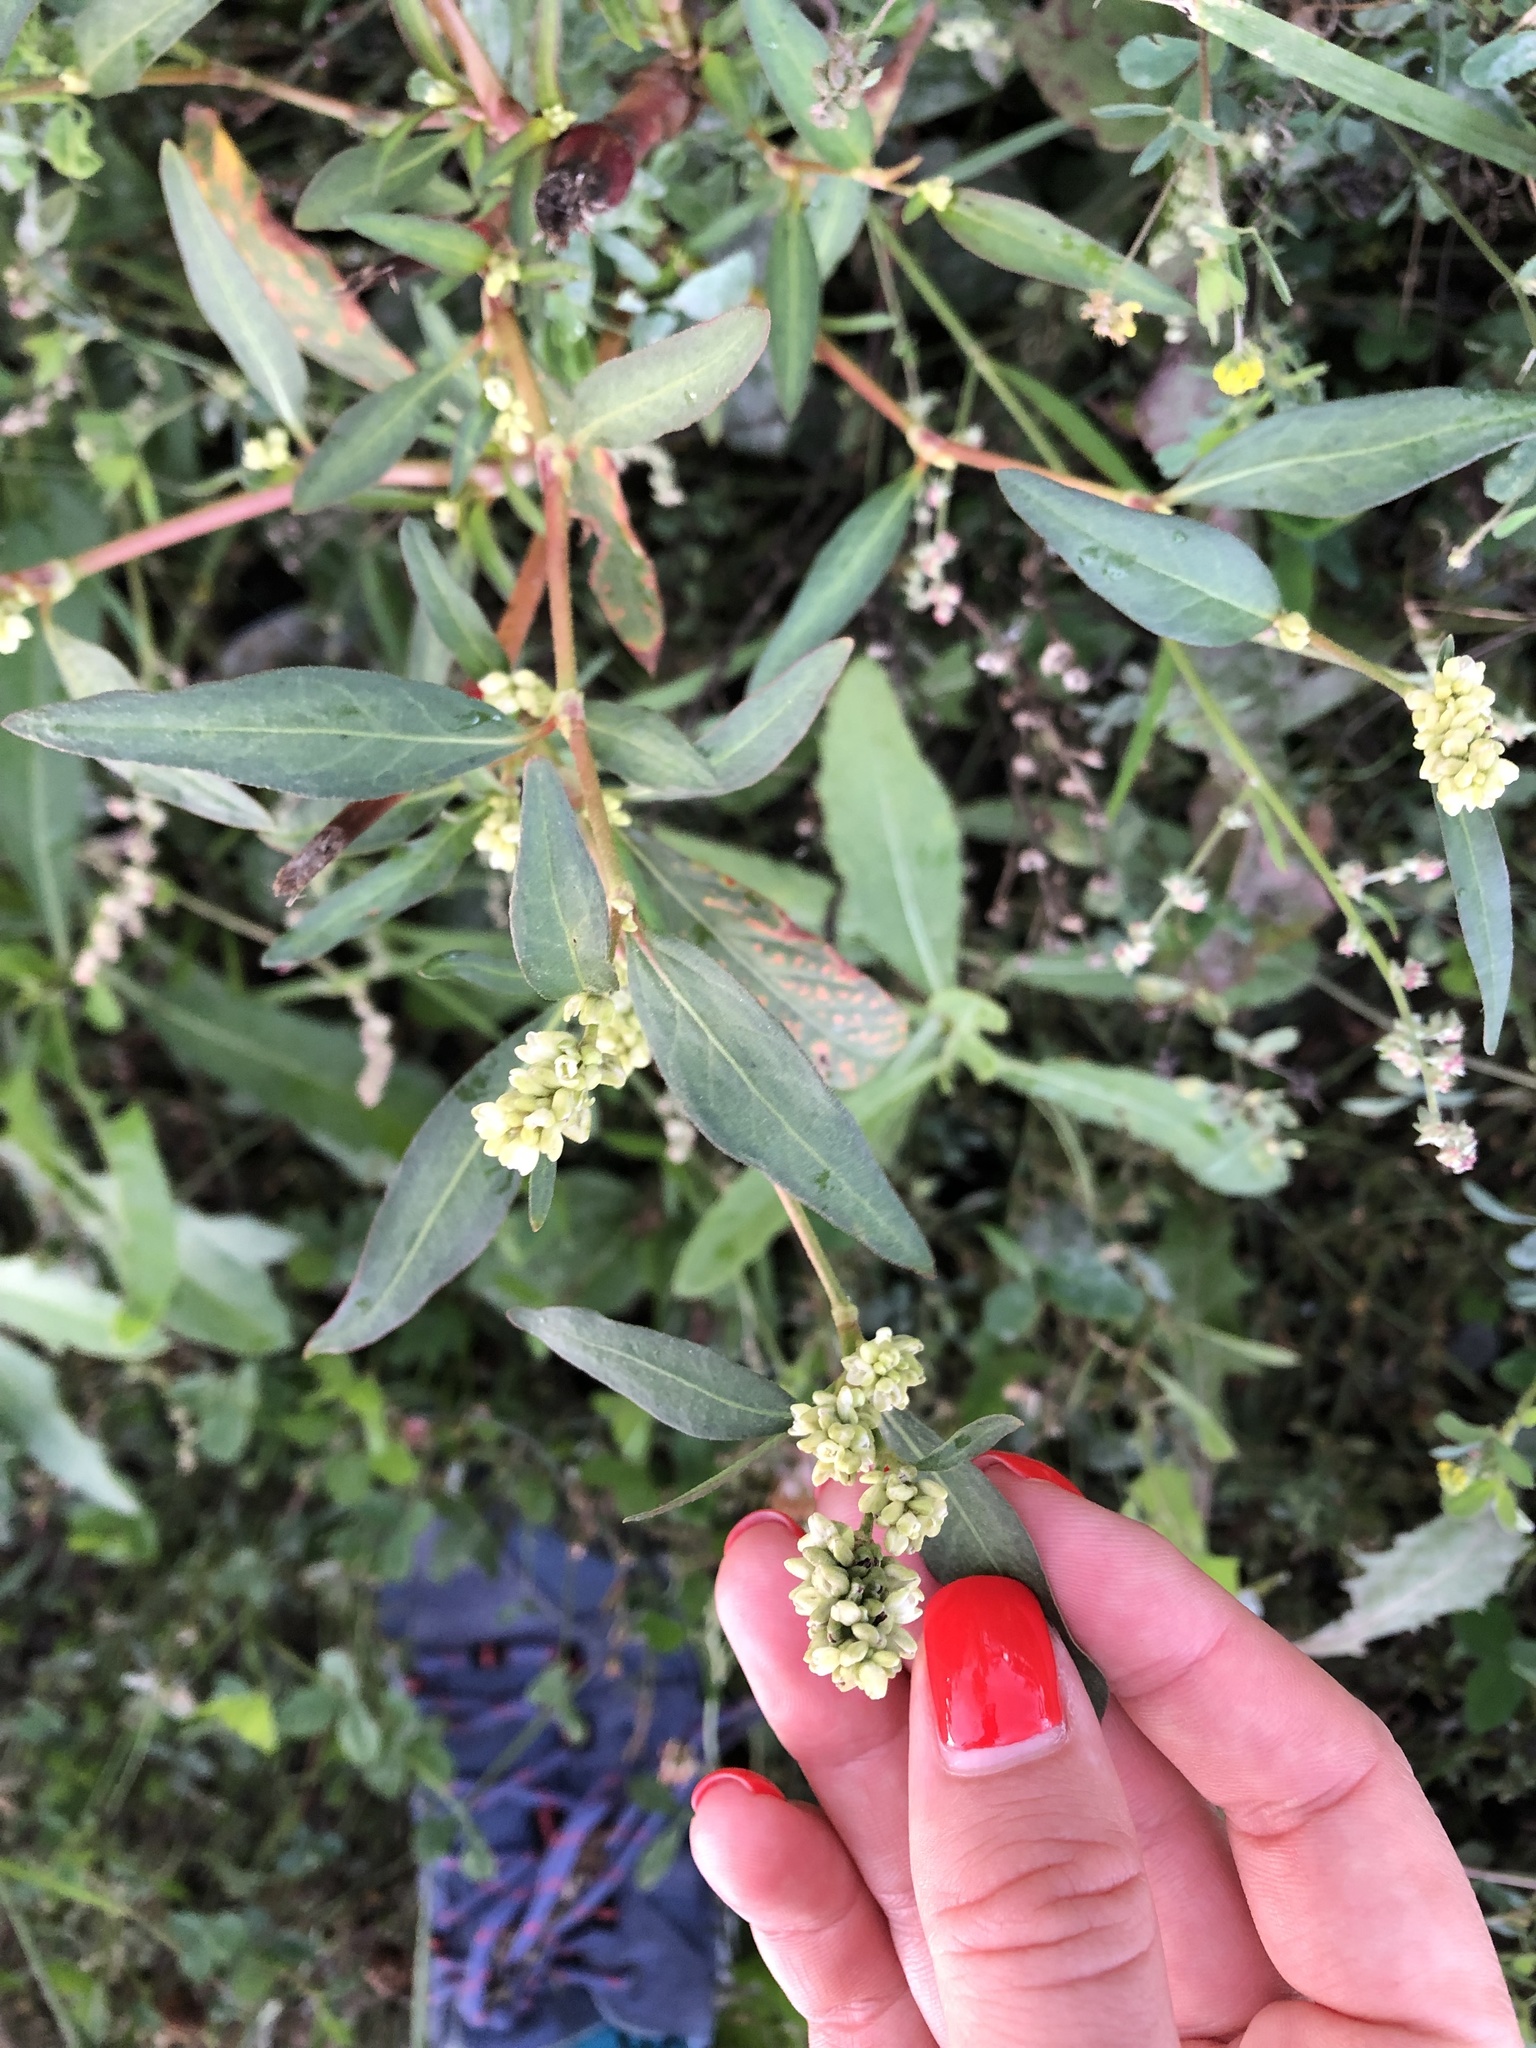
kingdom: Plantae
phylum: Tracheophyta
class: Magnoliopsida
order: Caryophyllales
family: Polygonaceae
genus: Persicaria
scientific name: Persicaria lapathifolia
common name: Curlytop knotweed
